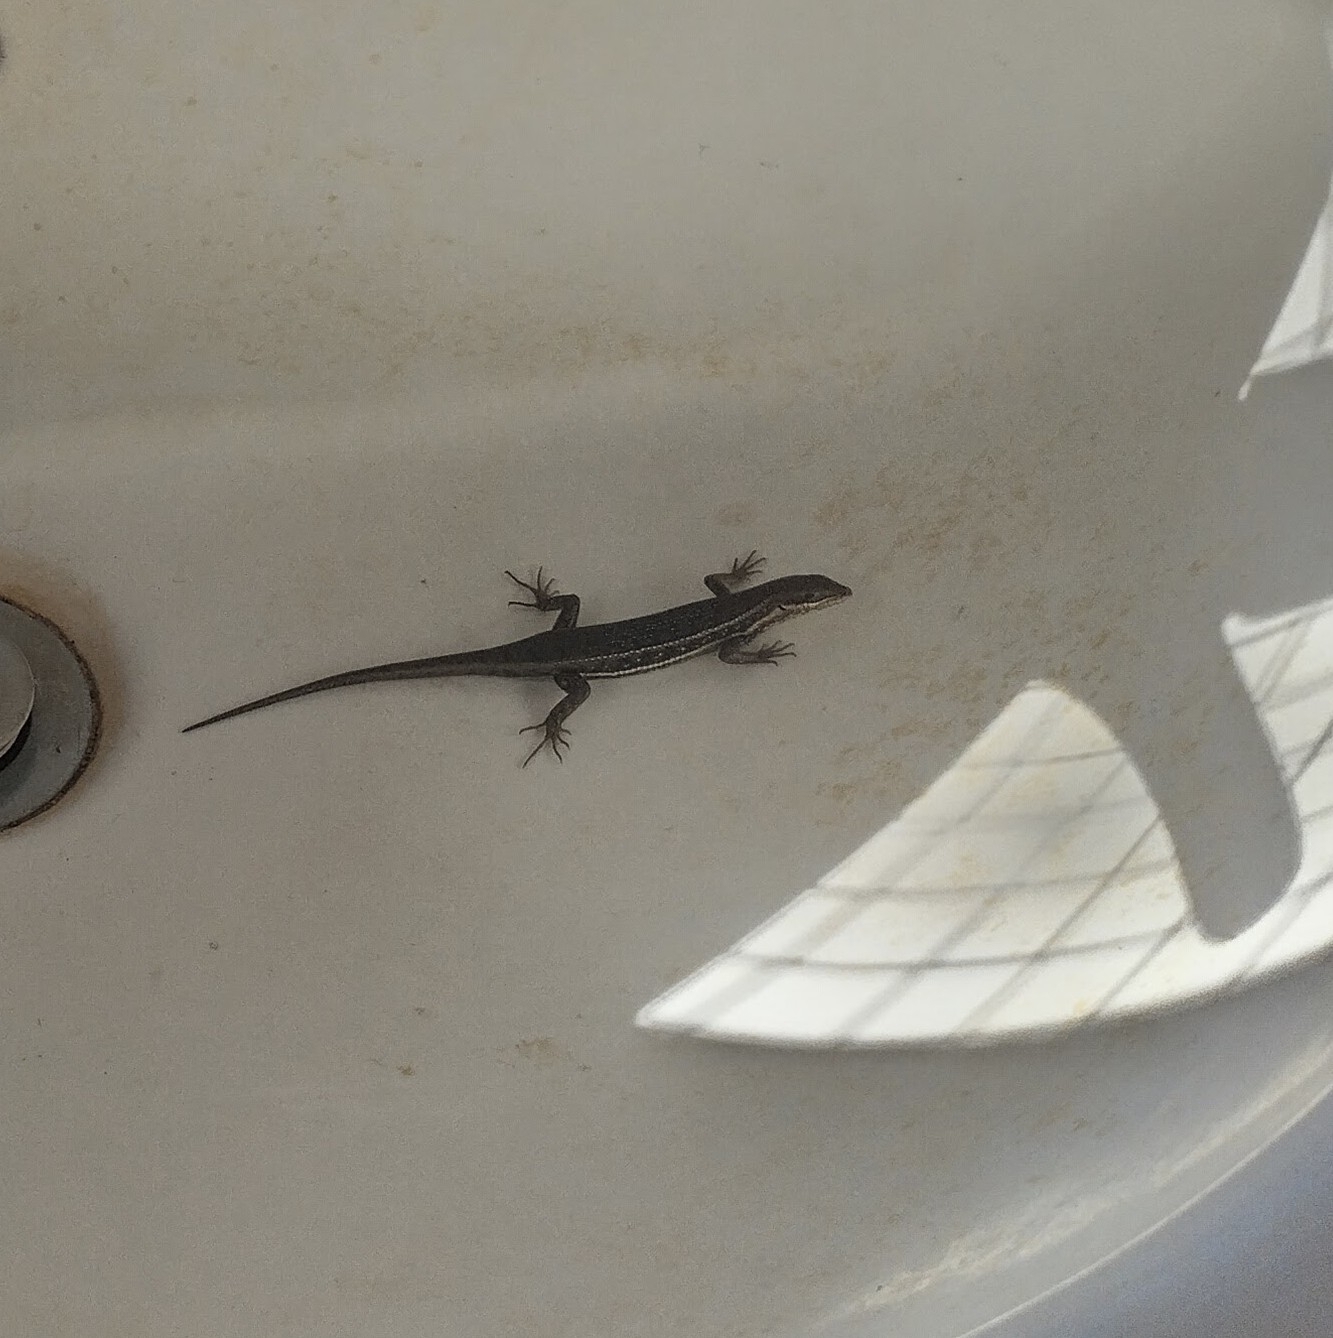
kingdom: Animalia
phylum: Chordata
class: Squamata
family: Scincidae
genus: Trachylepis
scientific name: Trachylepis damarana
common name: Damara skink
